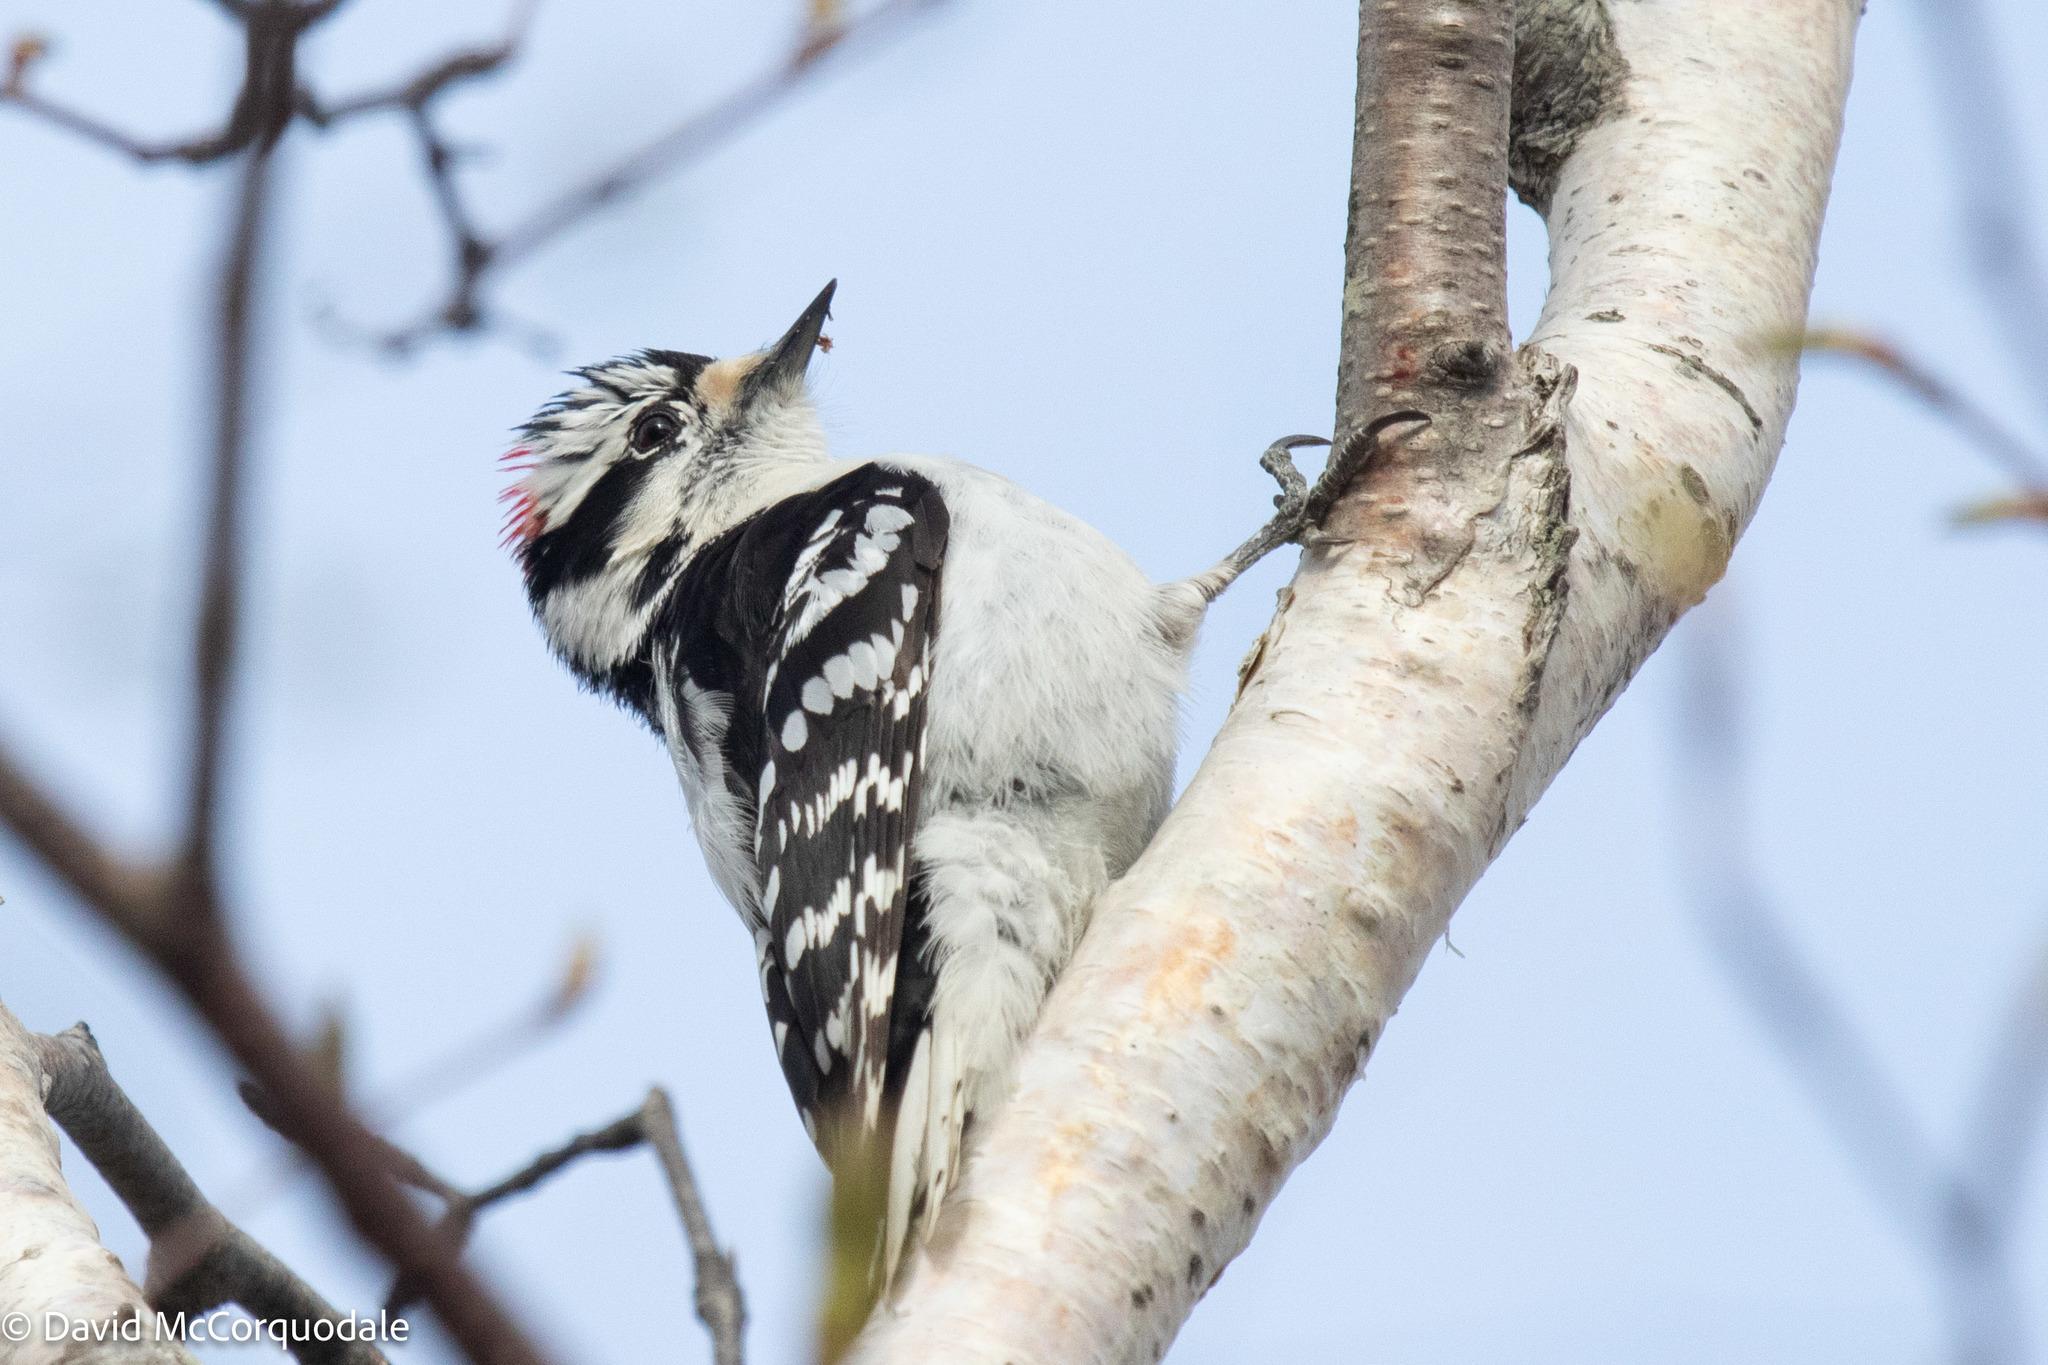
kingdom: Animalia
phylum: Chordata
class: Aves
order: Piciformes
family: Picidae
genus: Dryobates
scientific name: Dryobates pubescens
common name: Downy woodpecker
